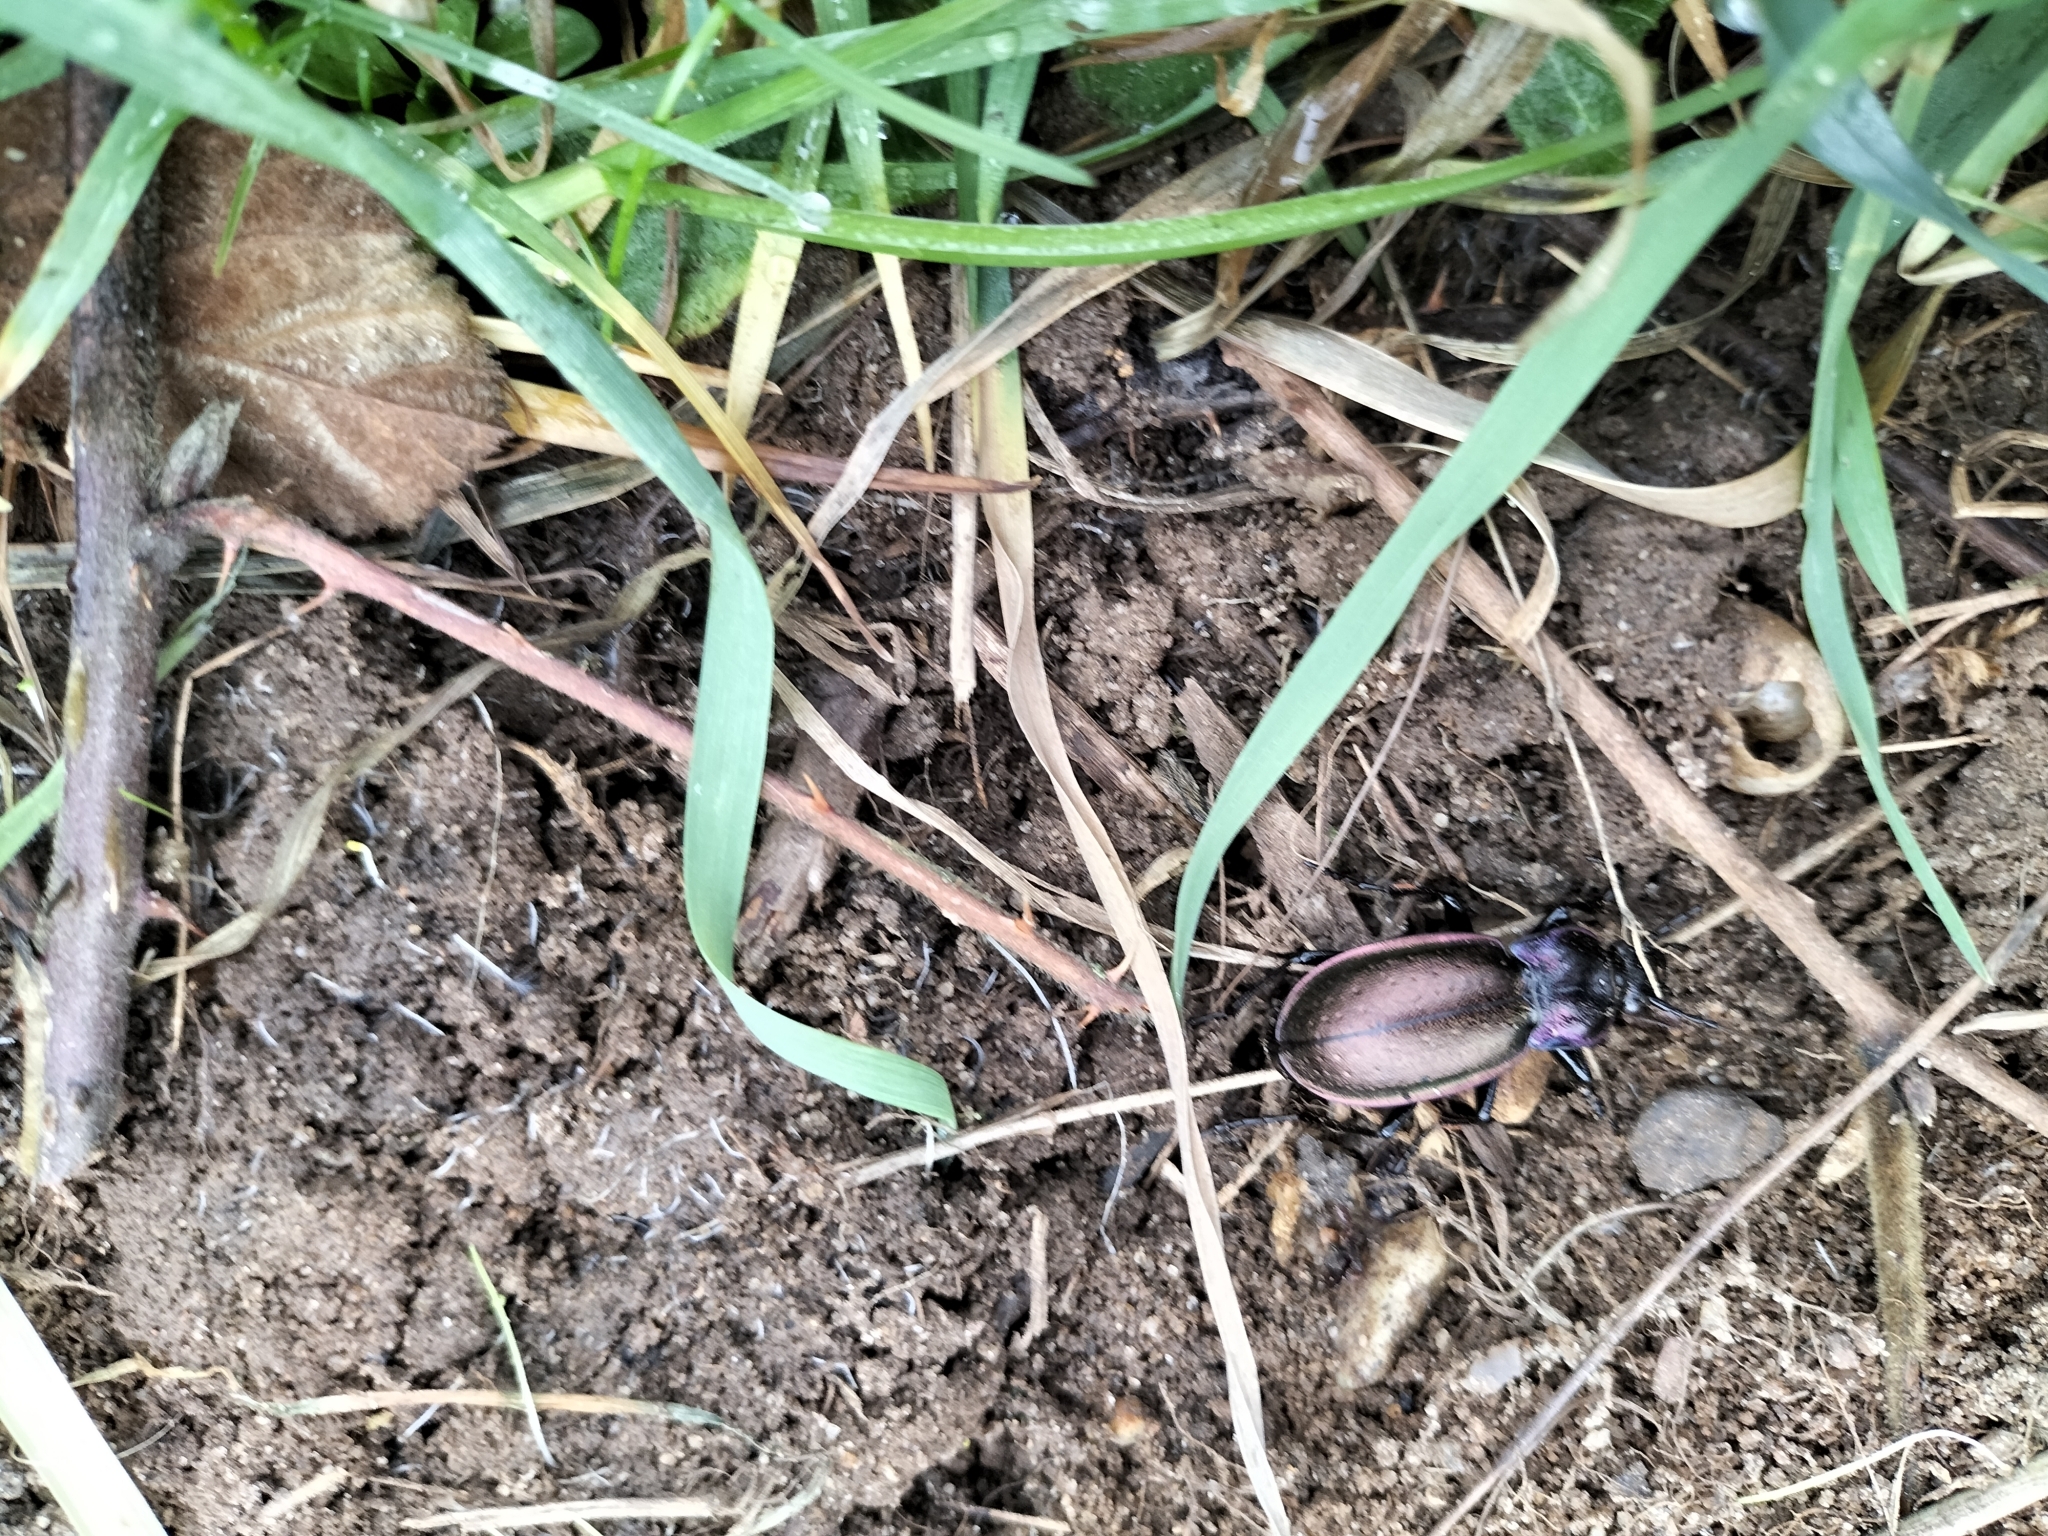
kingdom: Animalia
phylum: Arthropoda
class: Insecta
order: Coleoptera
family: Carabidae
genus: Carabus
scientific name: Carabus nemoralis
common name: European ground beetle
